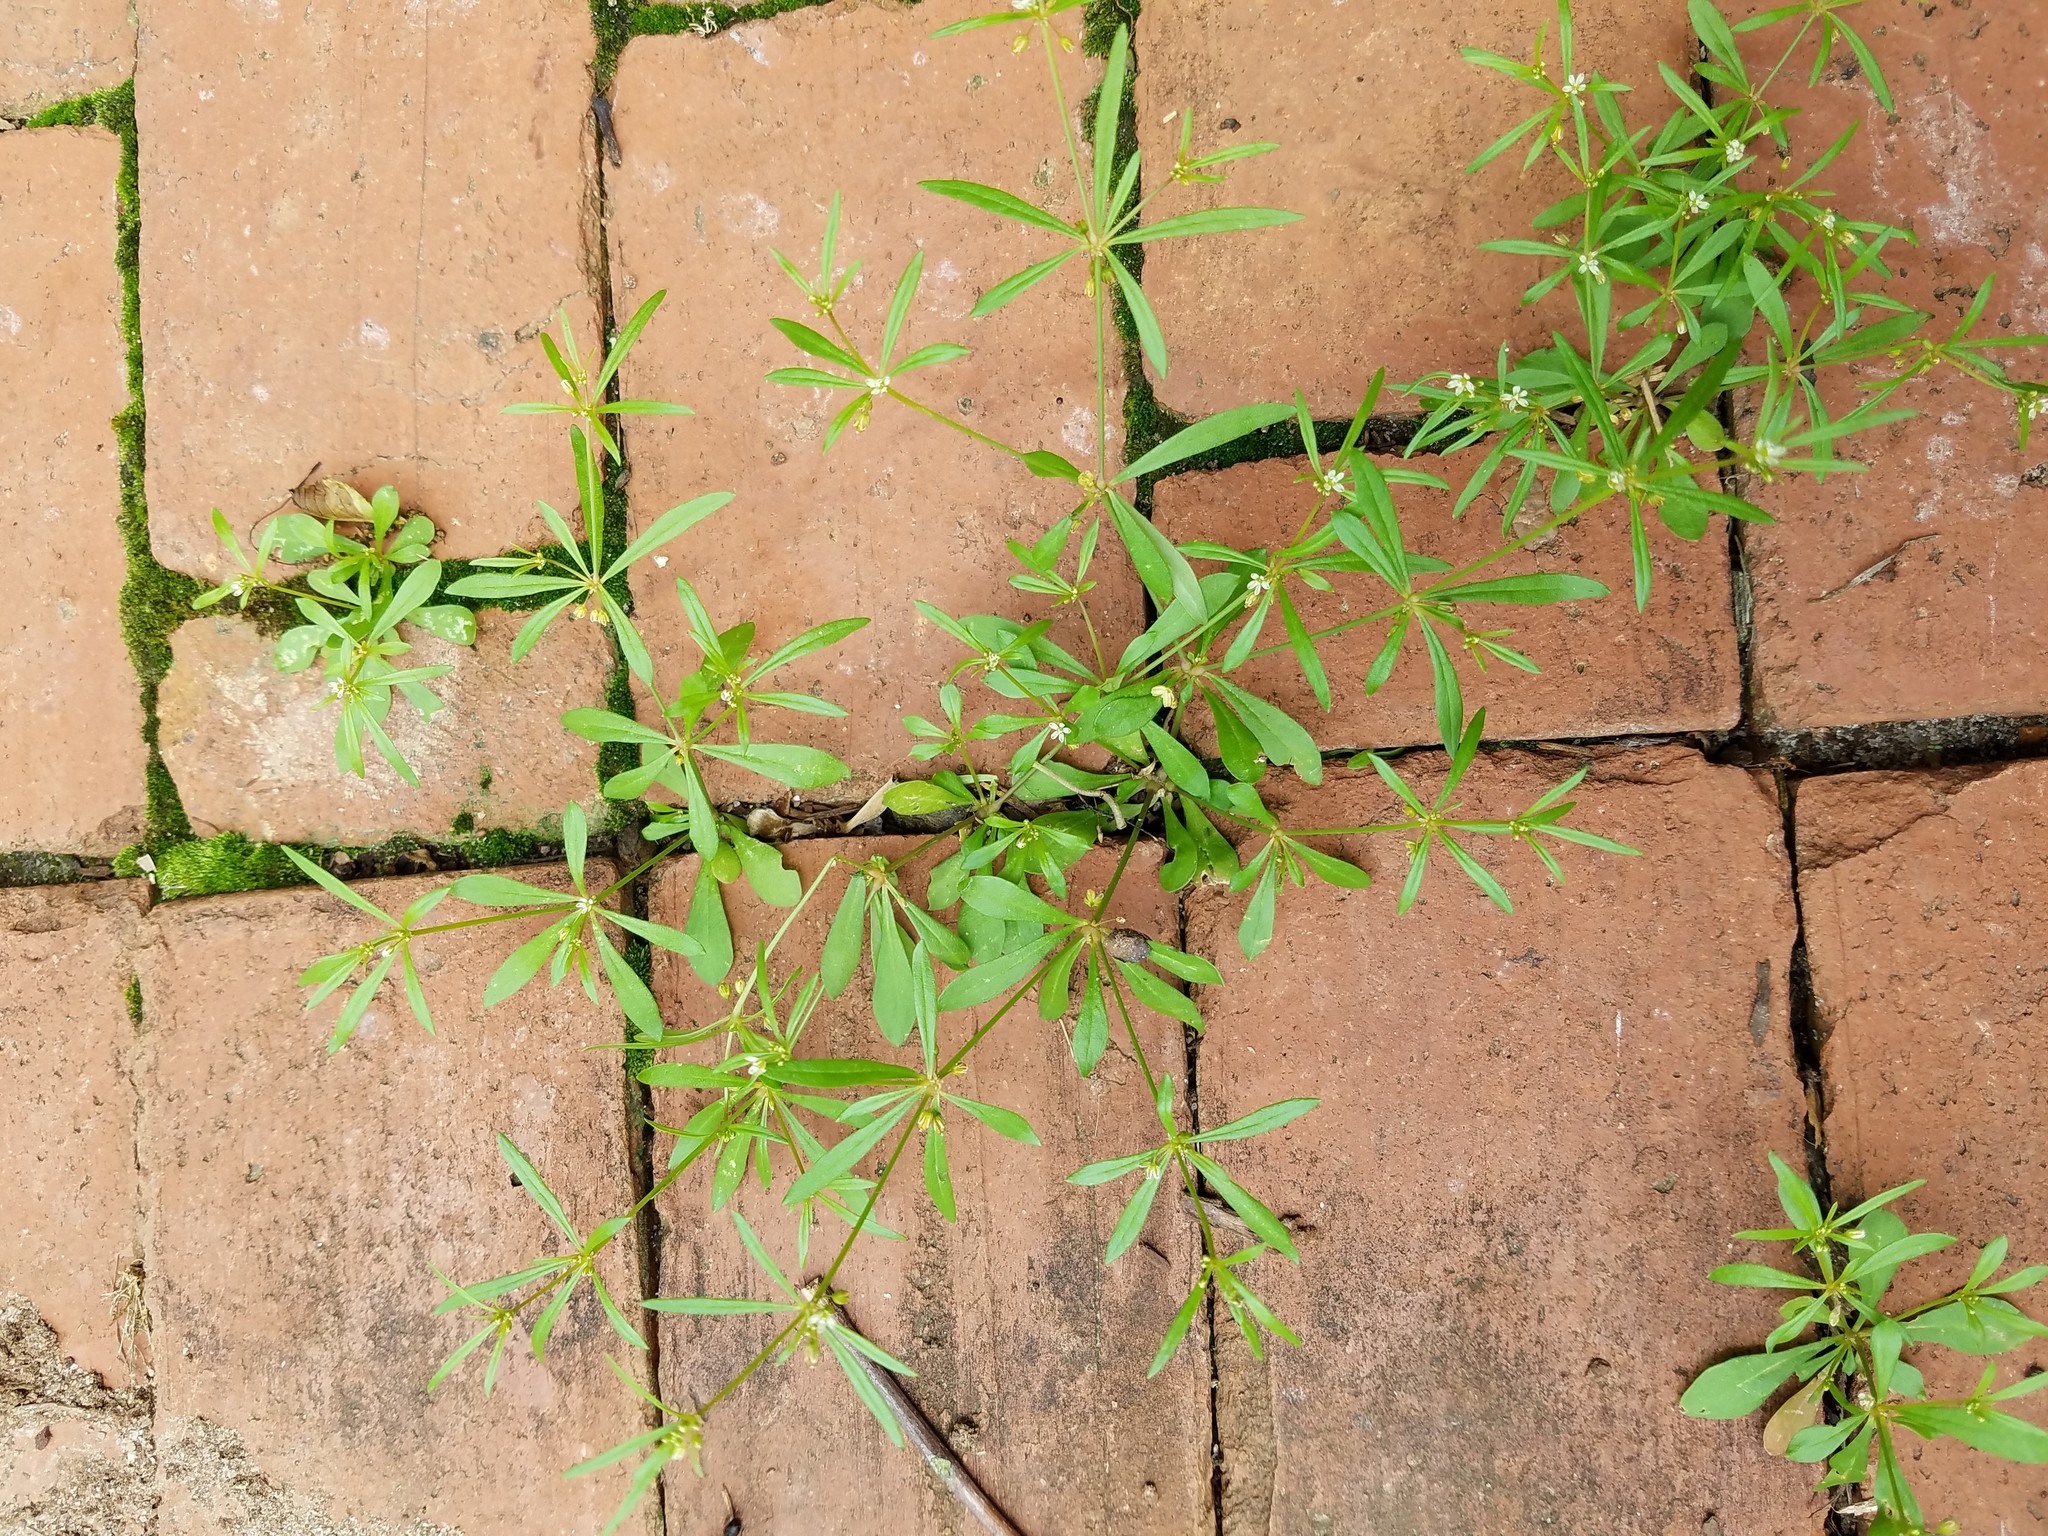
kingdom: Plantae
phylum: Tracheophyta
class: Magnoliopsida
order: Caryophyllales
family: Molluginaceae
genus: Mollugo
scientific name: Mollugo verticillata
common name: Green carpetweed
